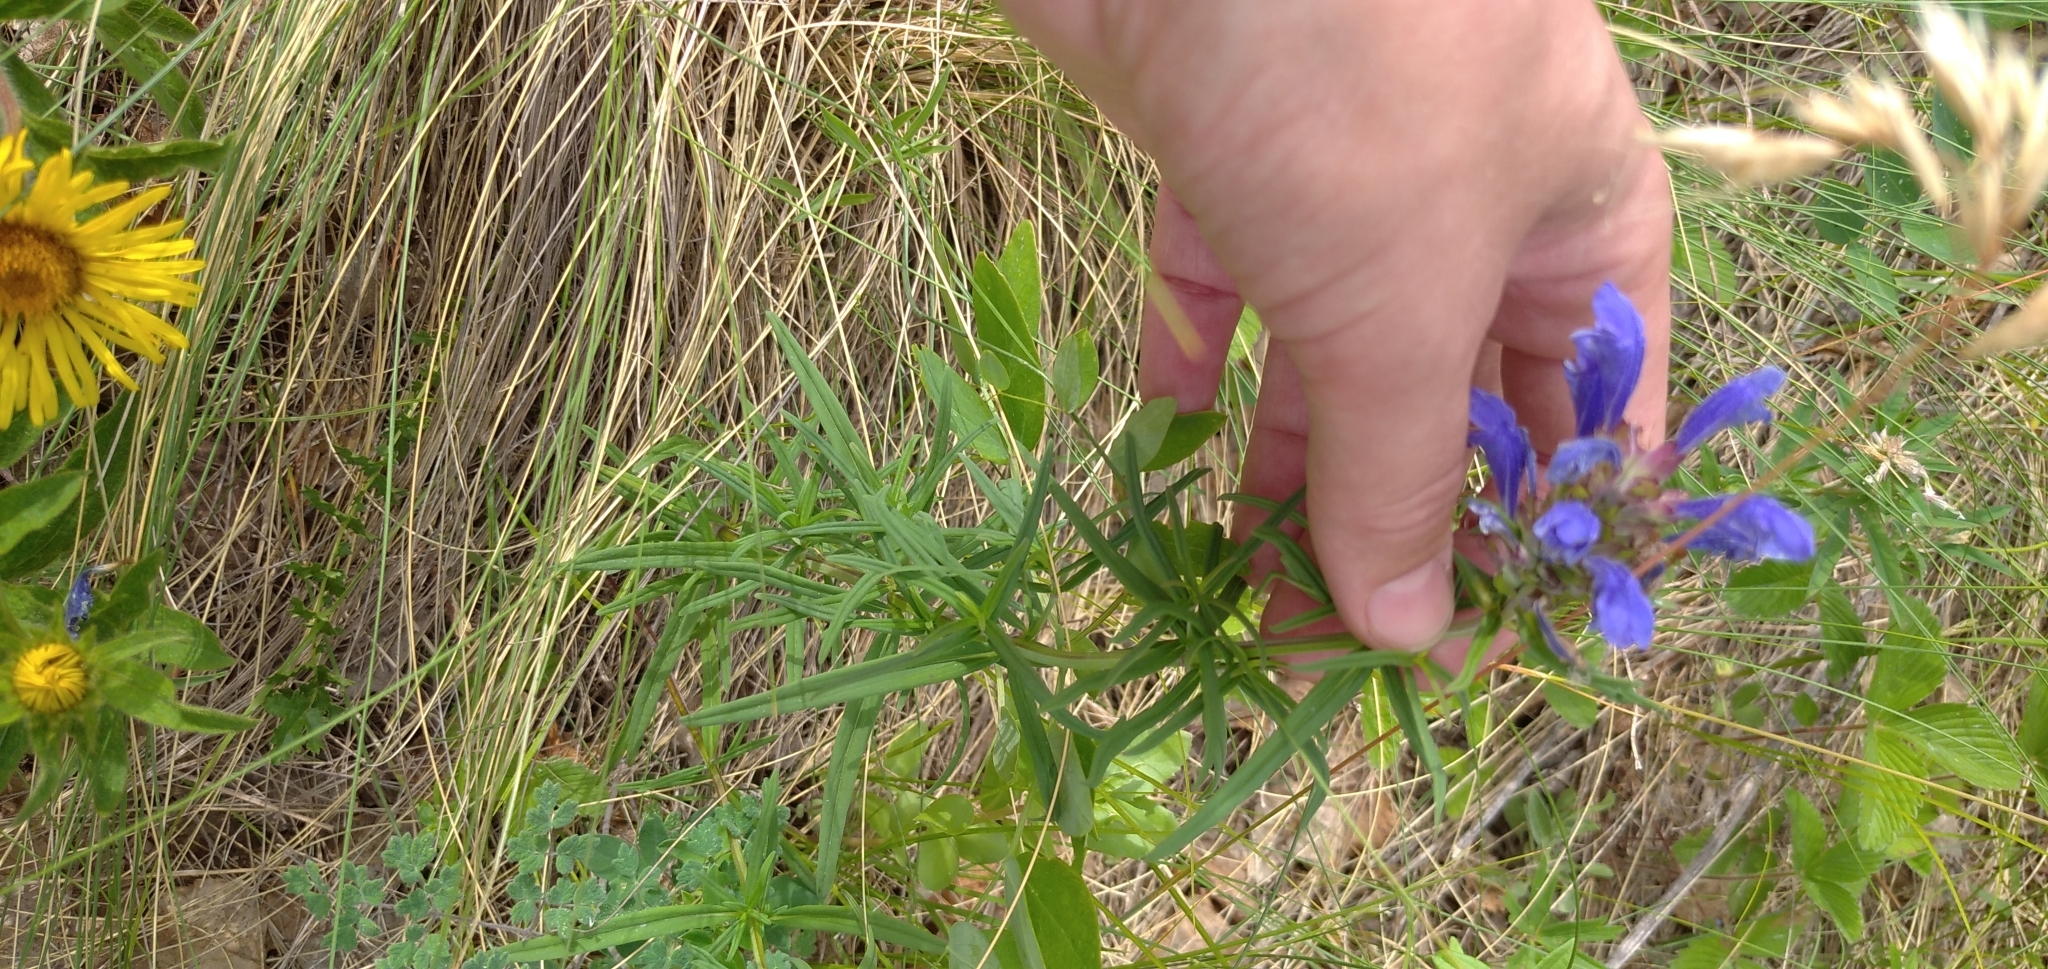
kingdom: Plantae
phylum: Tracheophyta
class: Magnoliopsida
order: Lamiales
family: Lamiaceae
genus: Dracocephalum
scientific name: Dracocephalum ruyschiana
